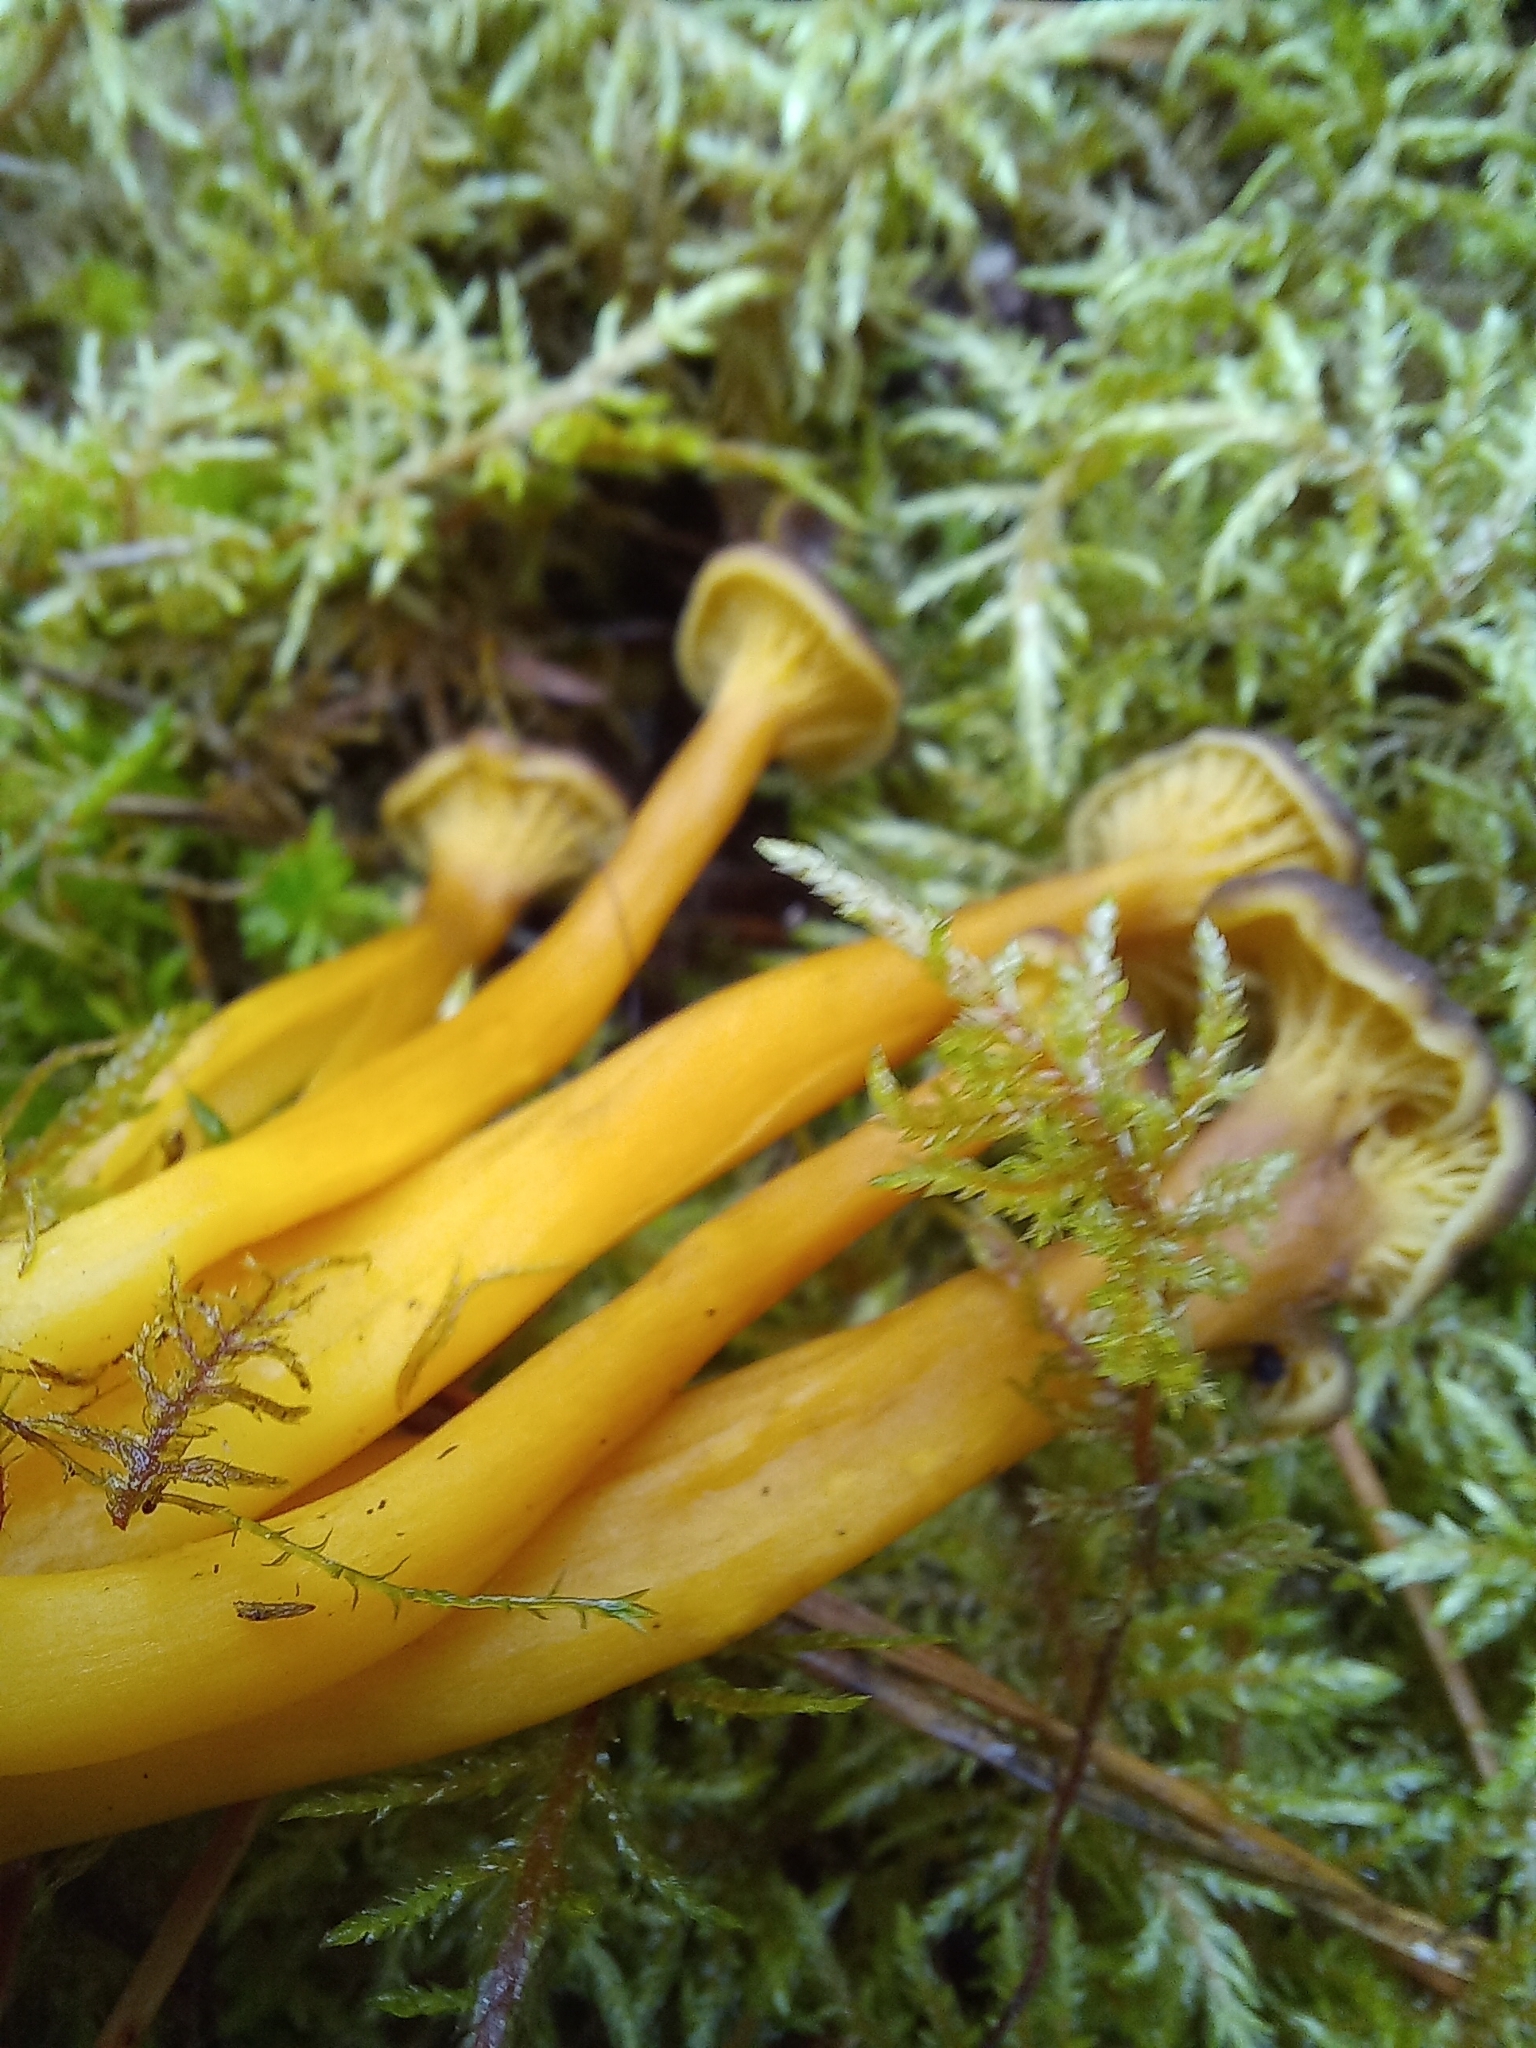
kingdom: Fungi
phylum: Basidiomycota
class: Agaricomycetes
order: Cantharellales
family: Hydnaceae
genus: Craterellus
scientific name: Craterellus tubaeformis
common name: Yellowfoot
